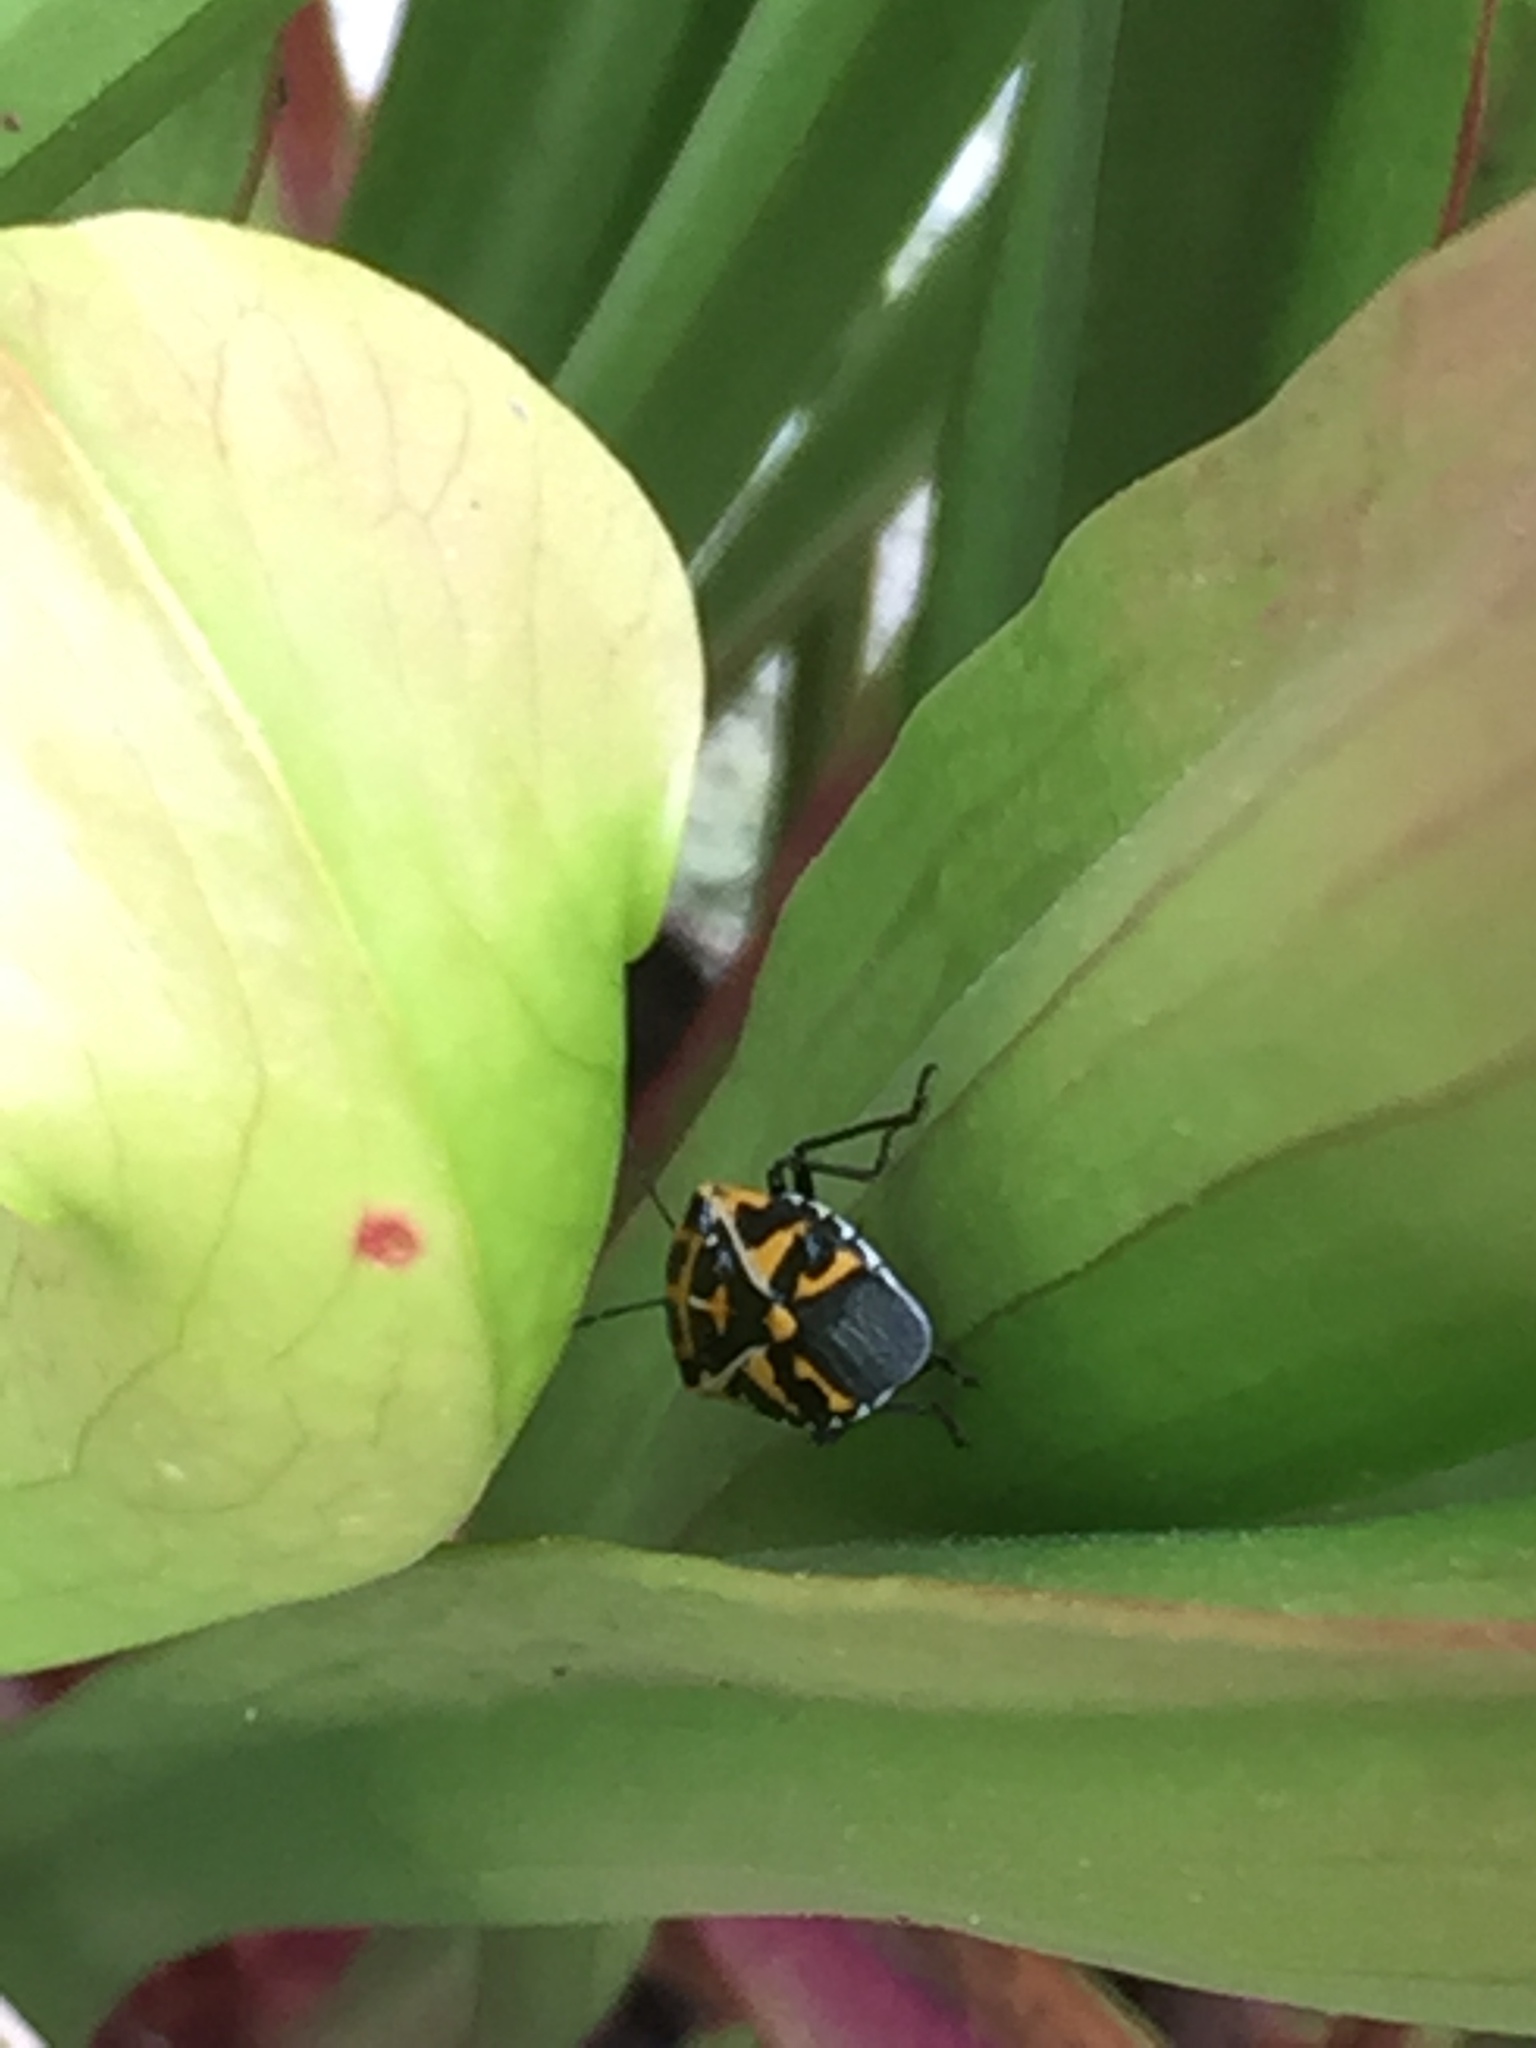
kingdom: Animalia
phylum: Arthropoda
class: Insecta
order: Hemiptera
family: Pentatomidae
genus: Murgantia
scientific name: Murgantia histrionica
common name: Harlequin bug
